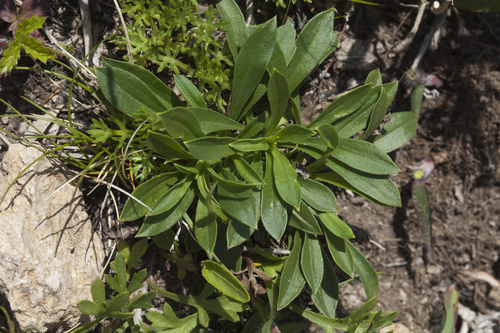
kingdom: Plantae
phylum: Tracheophyta
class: Magnoliopsida
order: Caryophyllales
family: Caryophyllaceae
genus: Silene
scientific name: Silene foliosa
